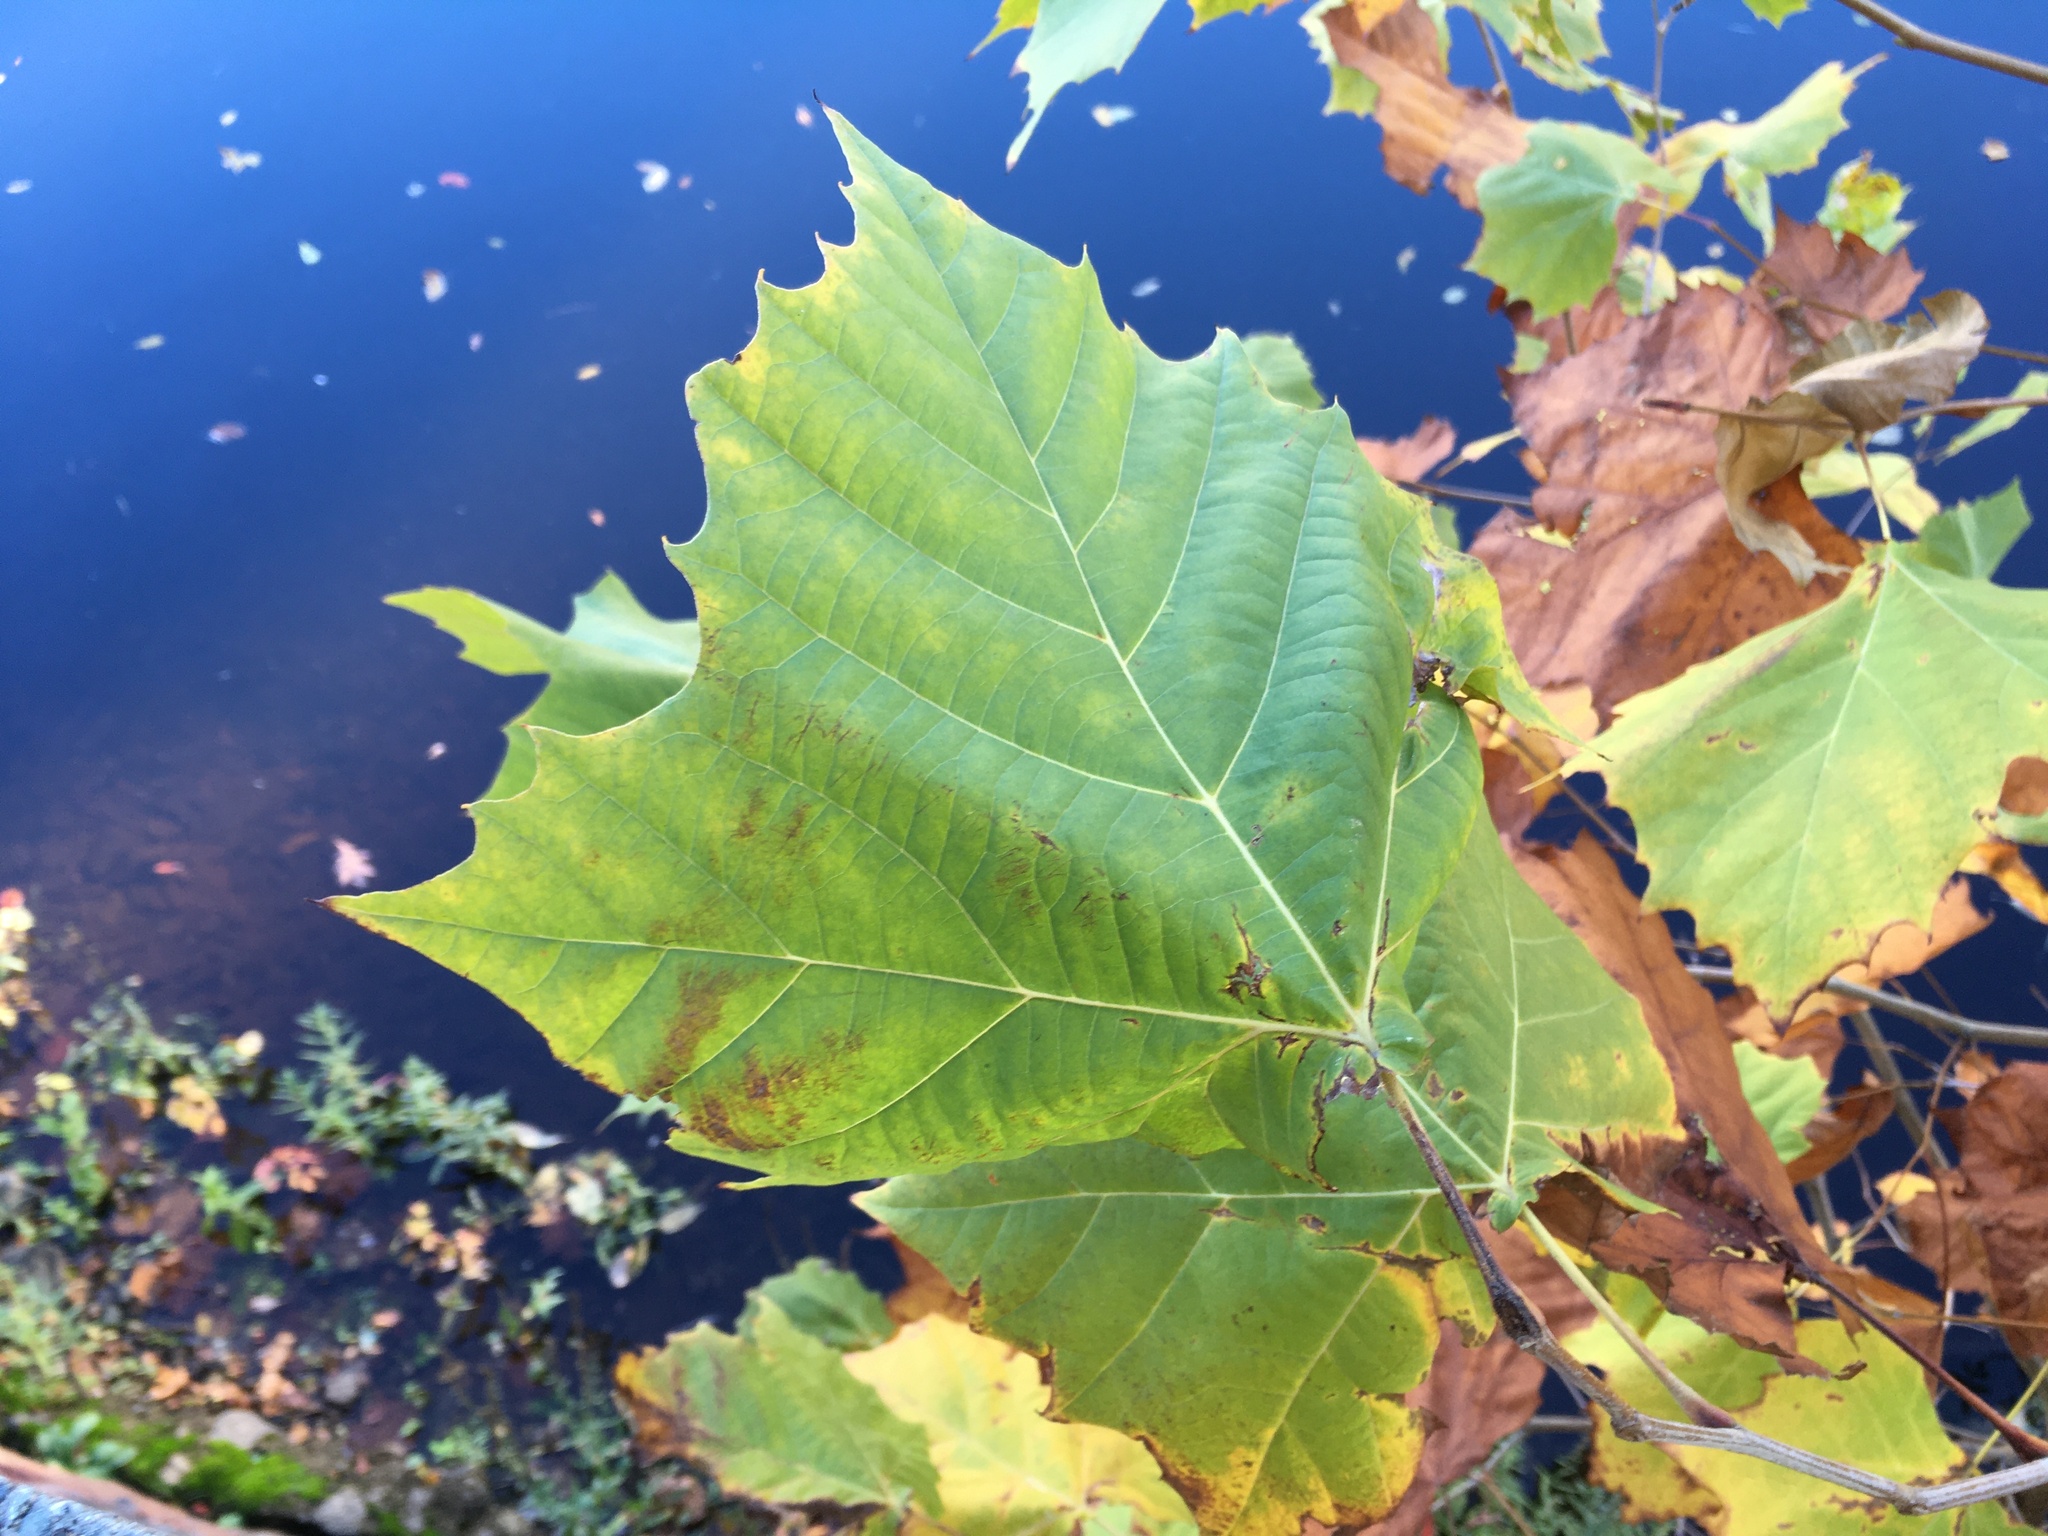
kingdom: Plantae
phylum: Tracheophyta
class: Magnoliopsida
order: Proteales
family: Platanaceae
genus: Platanus
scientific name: Platanus occidentalis
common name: American sycamore
